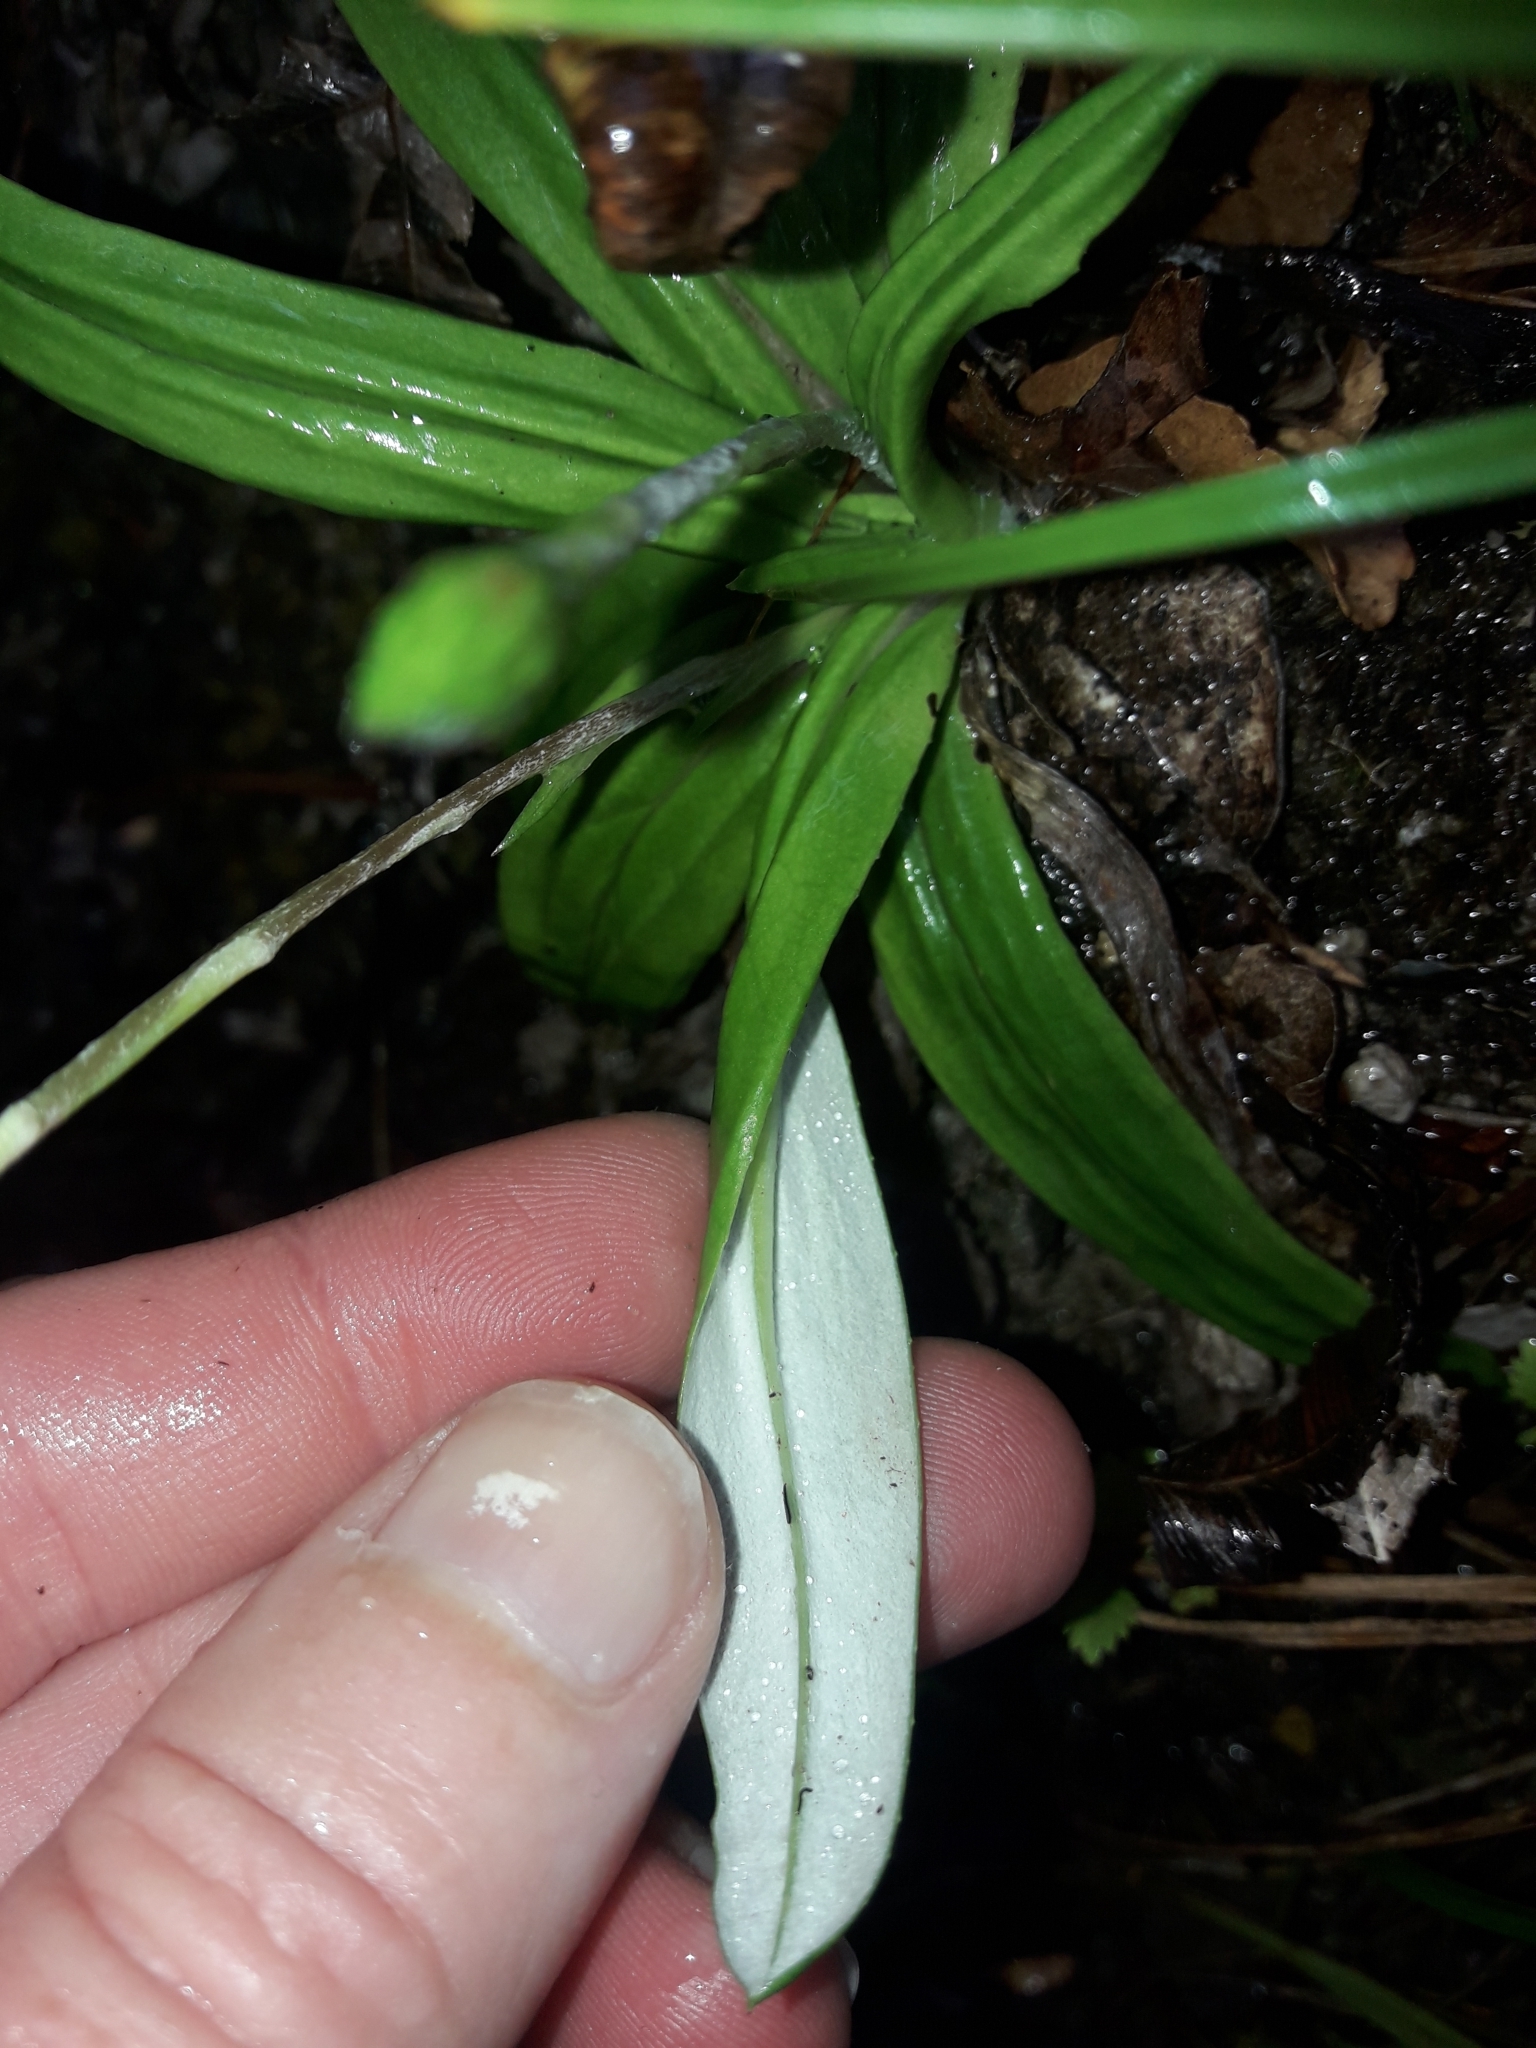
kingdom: Plantae
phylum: Tracheophyta
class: Magnoliopsida
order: Asterales
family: Asteraceae
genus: Celmisia
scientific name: Celmisia adamsii
